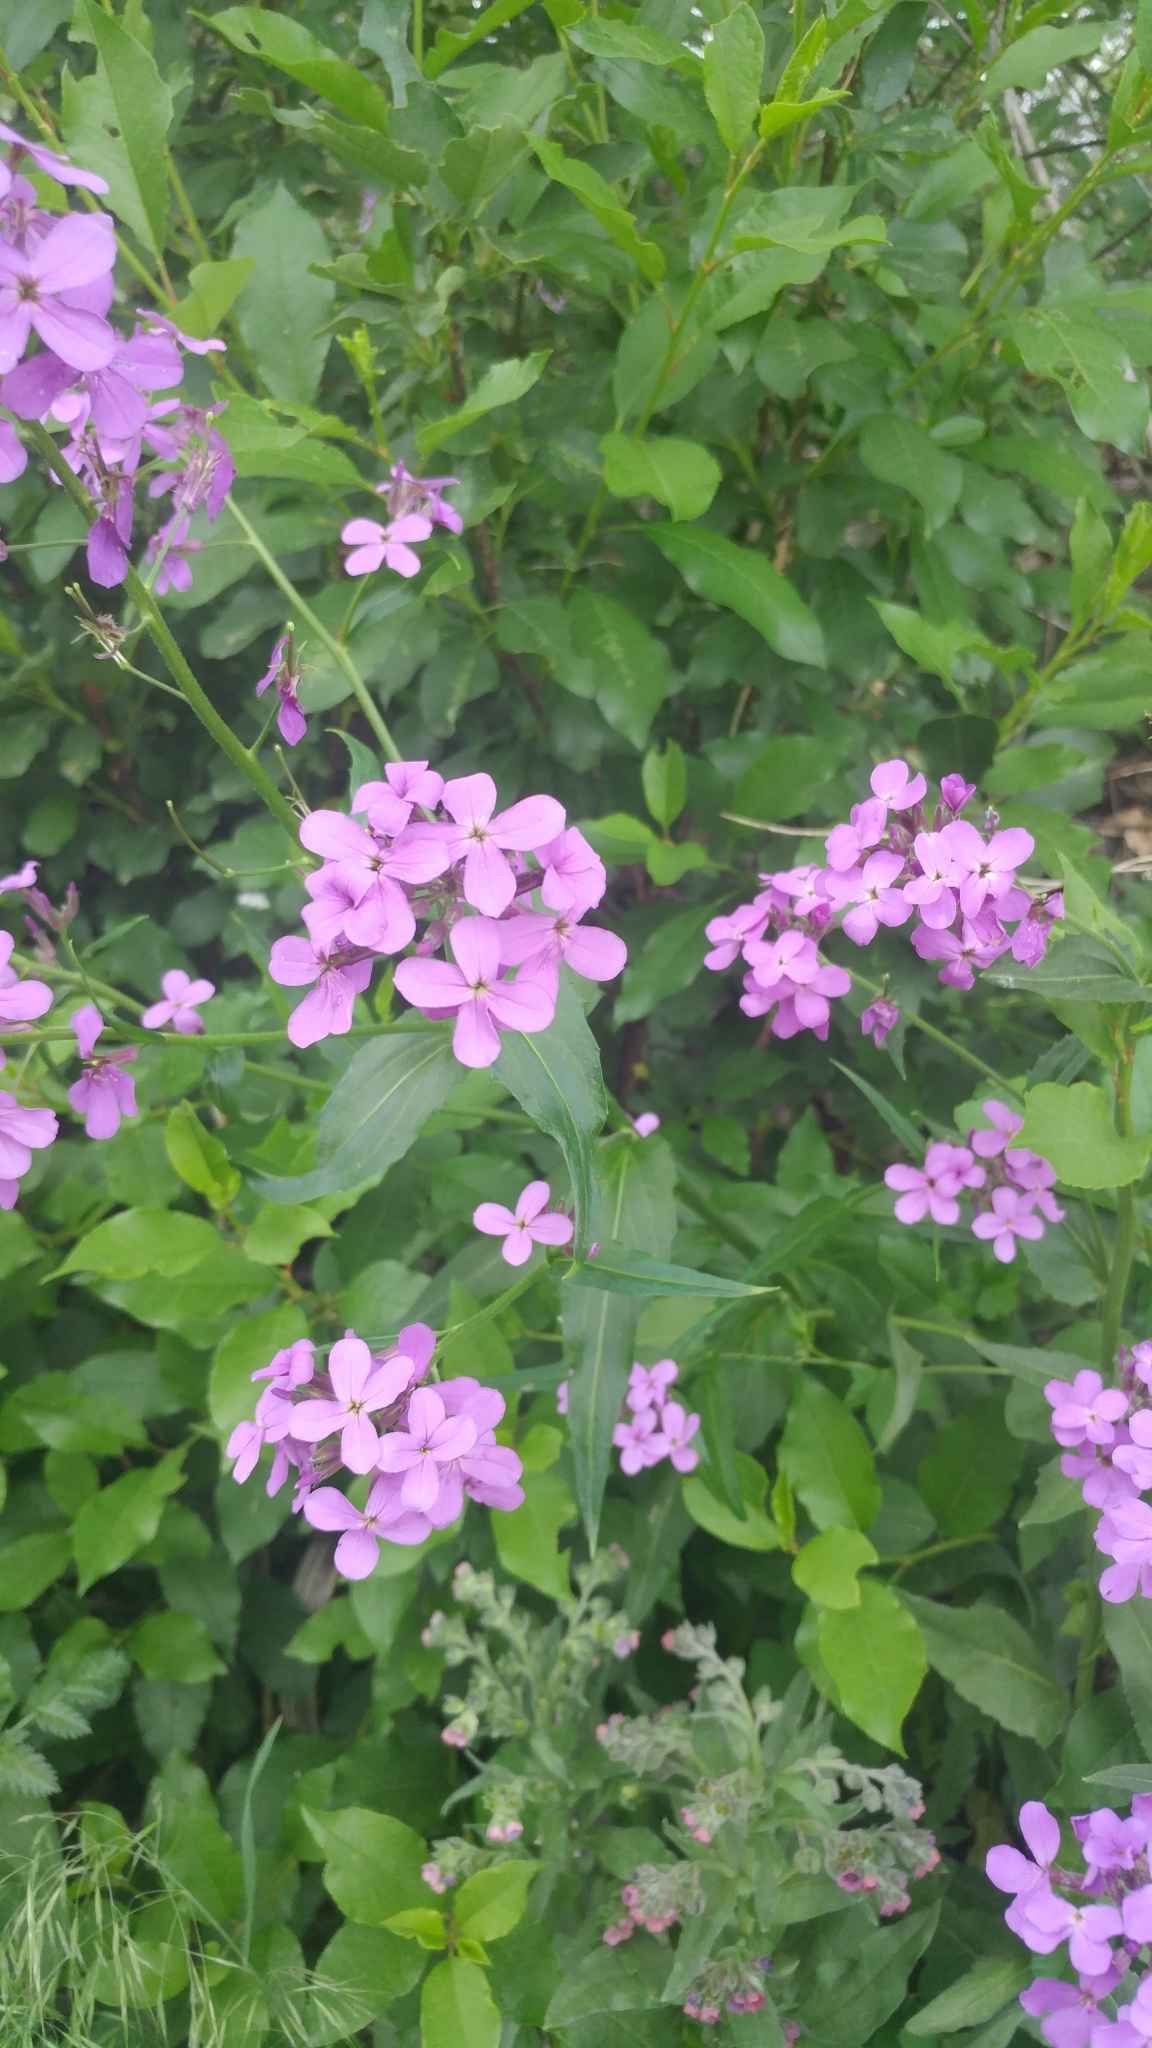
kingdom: Plantae
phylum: Tracheophyta
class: Magnoliopsida
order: Brassicales
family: Brassicaceae
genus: Hesperis
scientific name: Hesperis matronalis
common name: Dame's-violet
